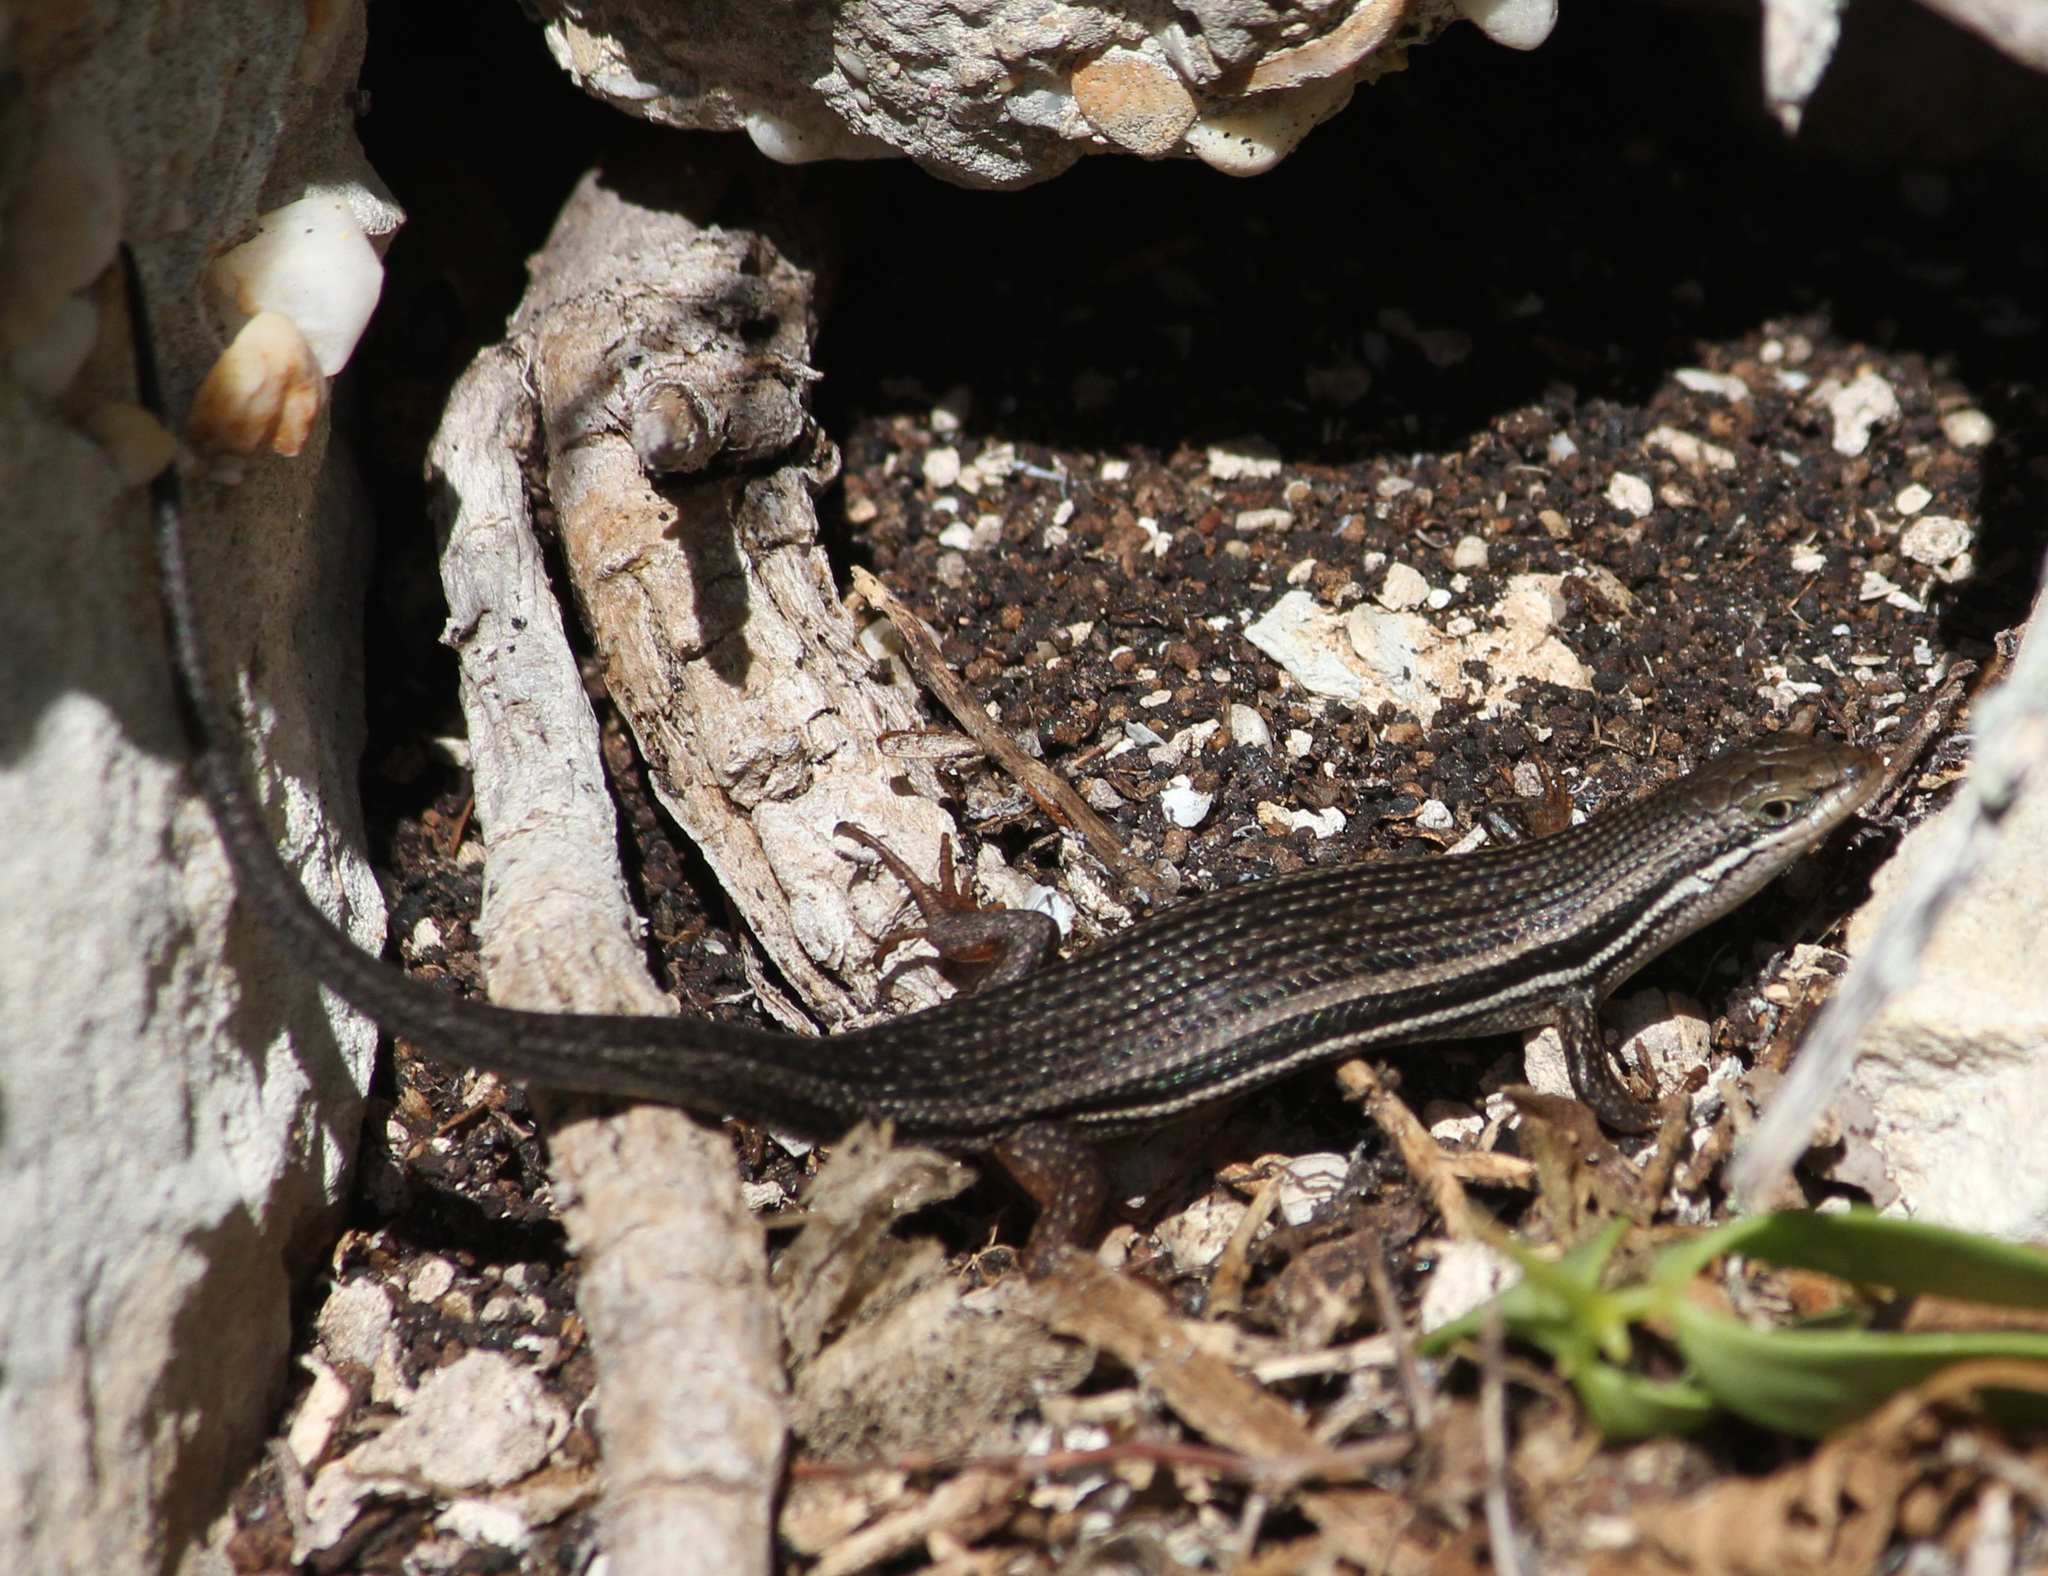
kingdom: Animalia
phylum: Chordata
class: Squamata
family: Scincidae
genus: Trachylepis
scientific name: Trachylepis homalocephala
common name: Red-sided skink
